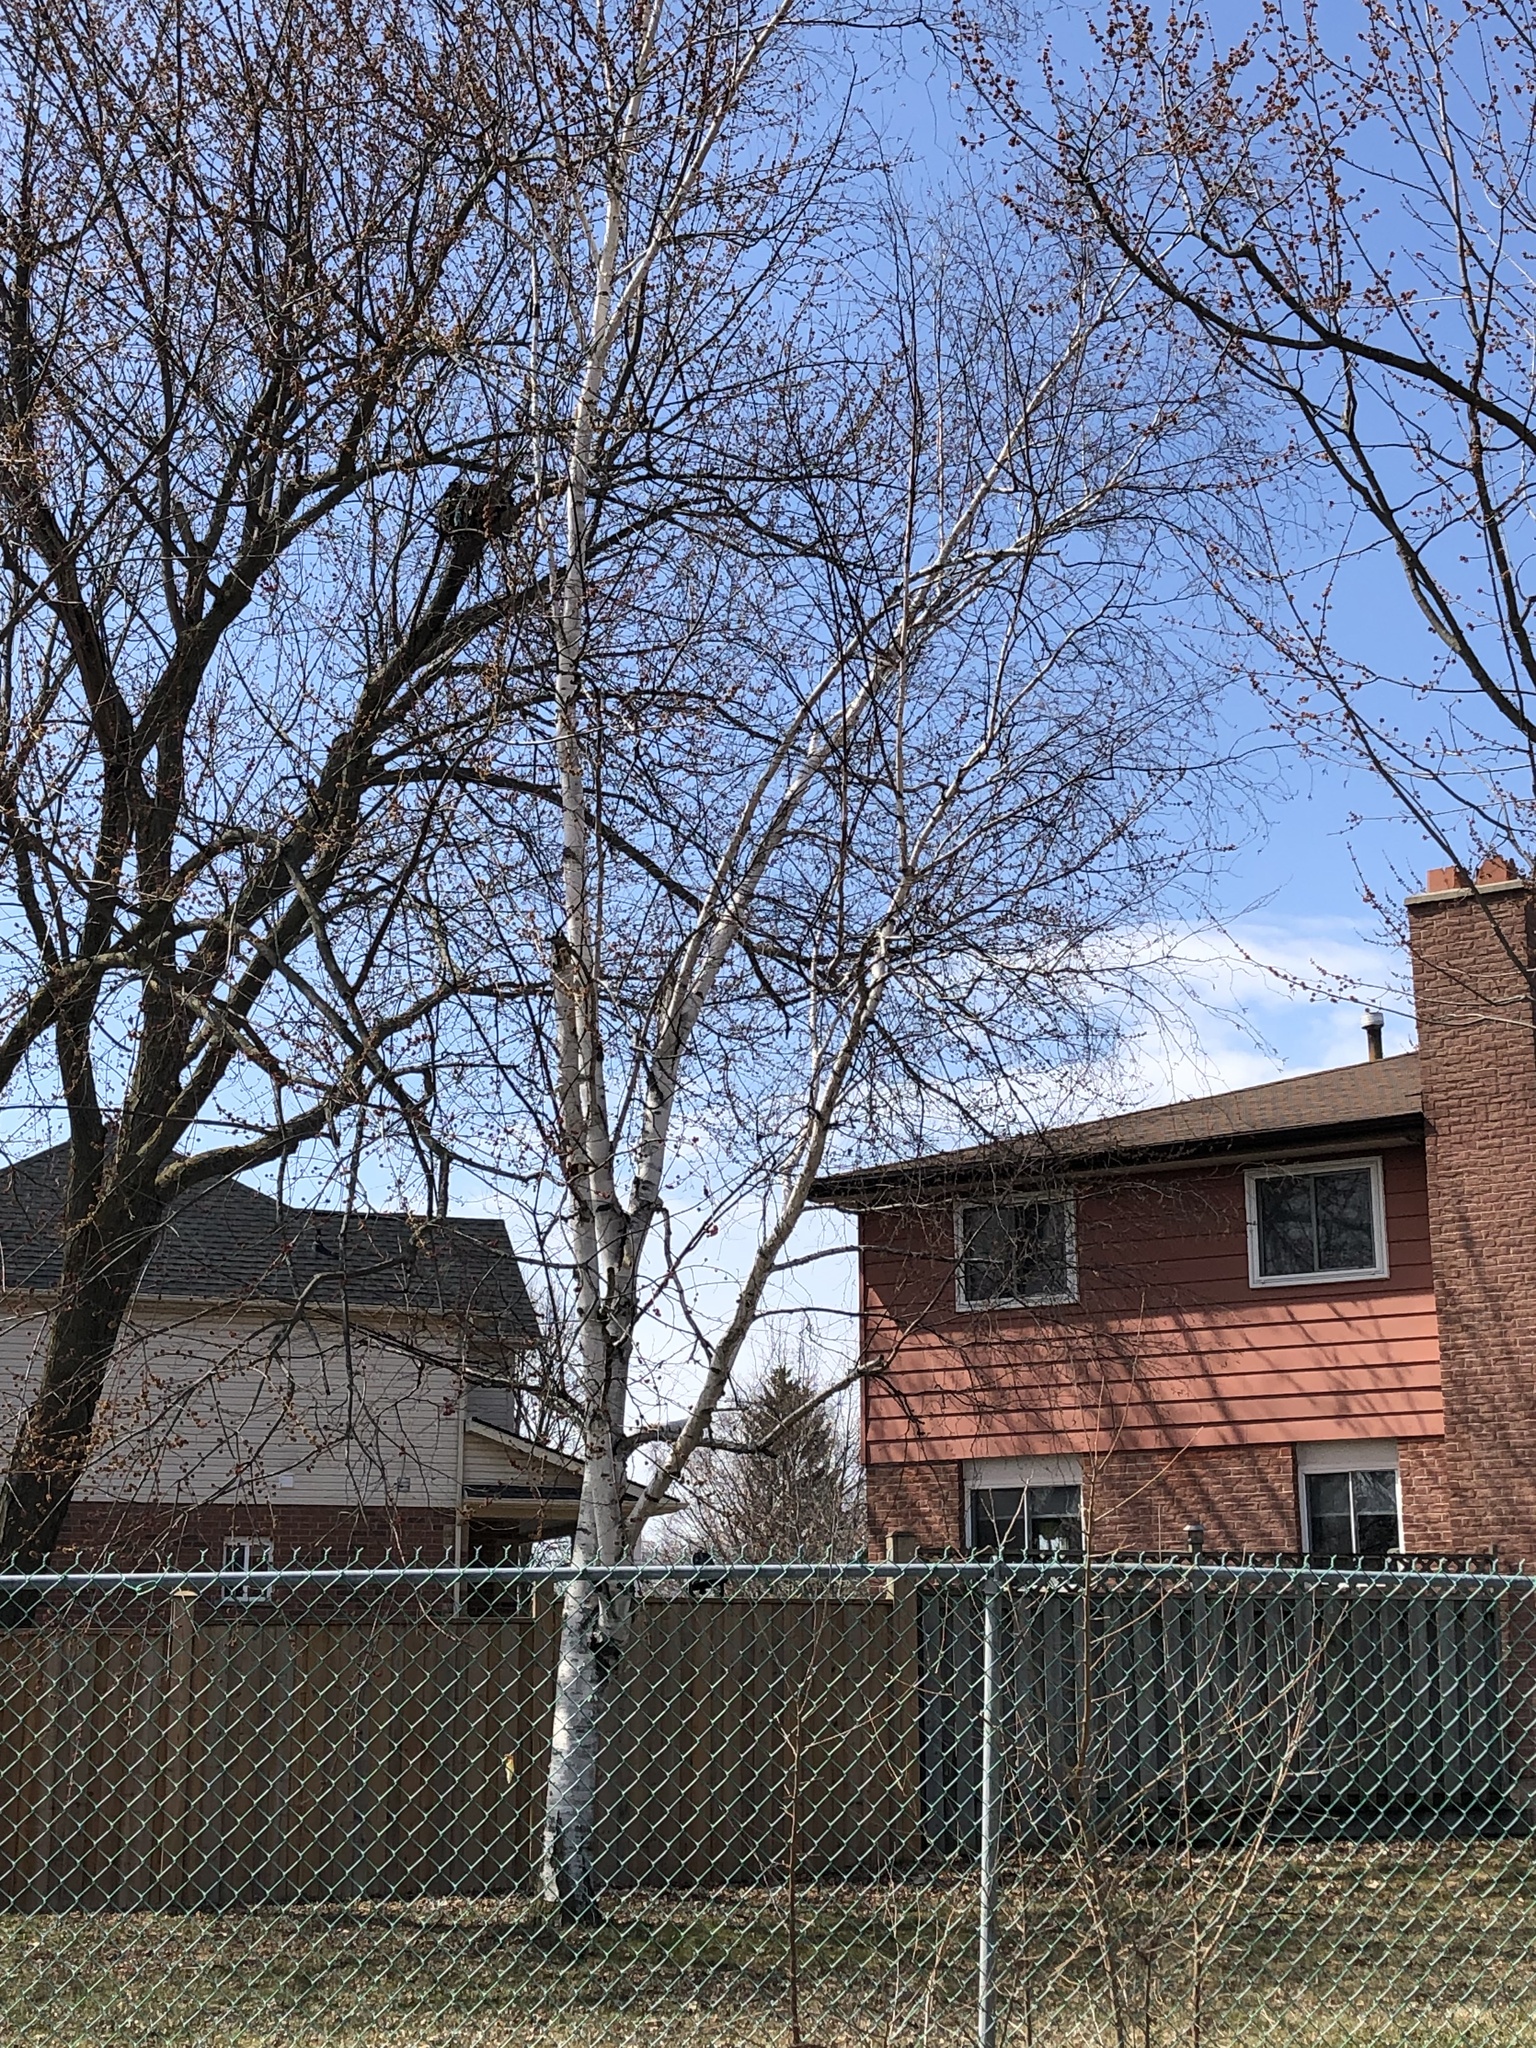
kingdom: Plantae
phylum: Tracheophyta
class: Magnoliopsida
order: Fagales
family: Betulaceae
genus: Betula
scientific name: Betula papyrifera
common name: Paper birch
